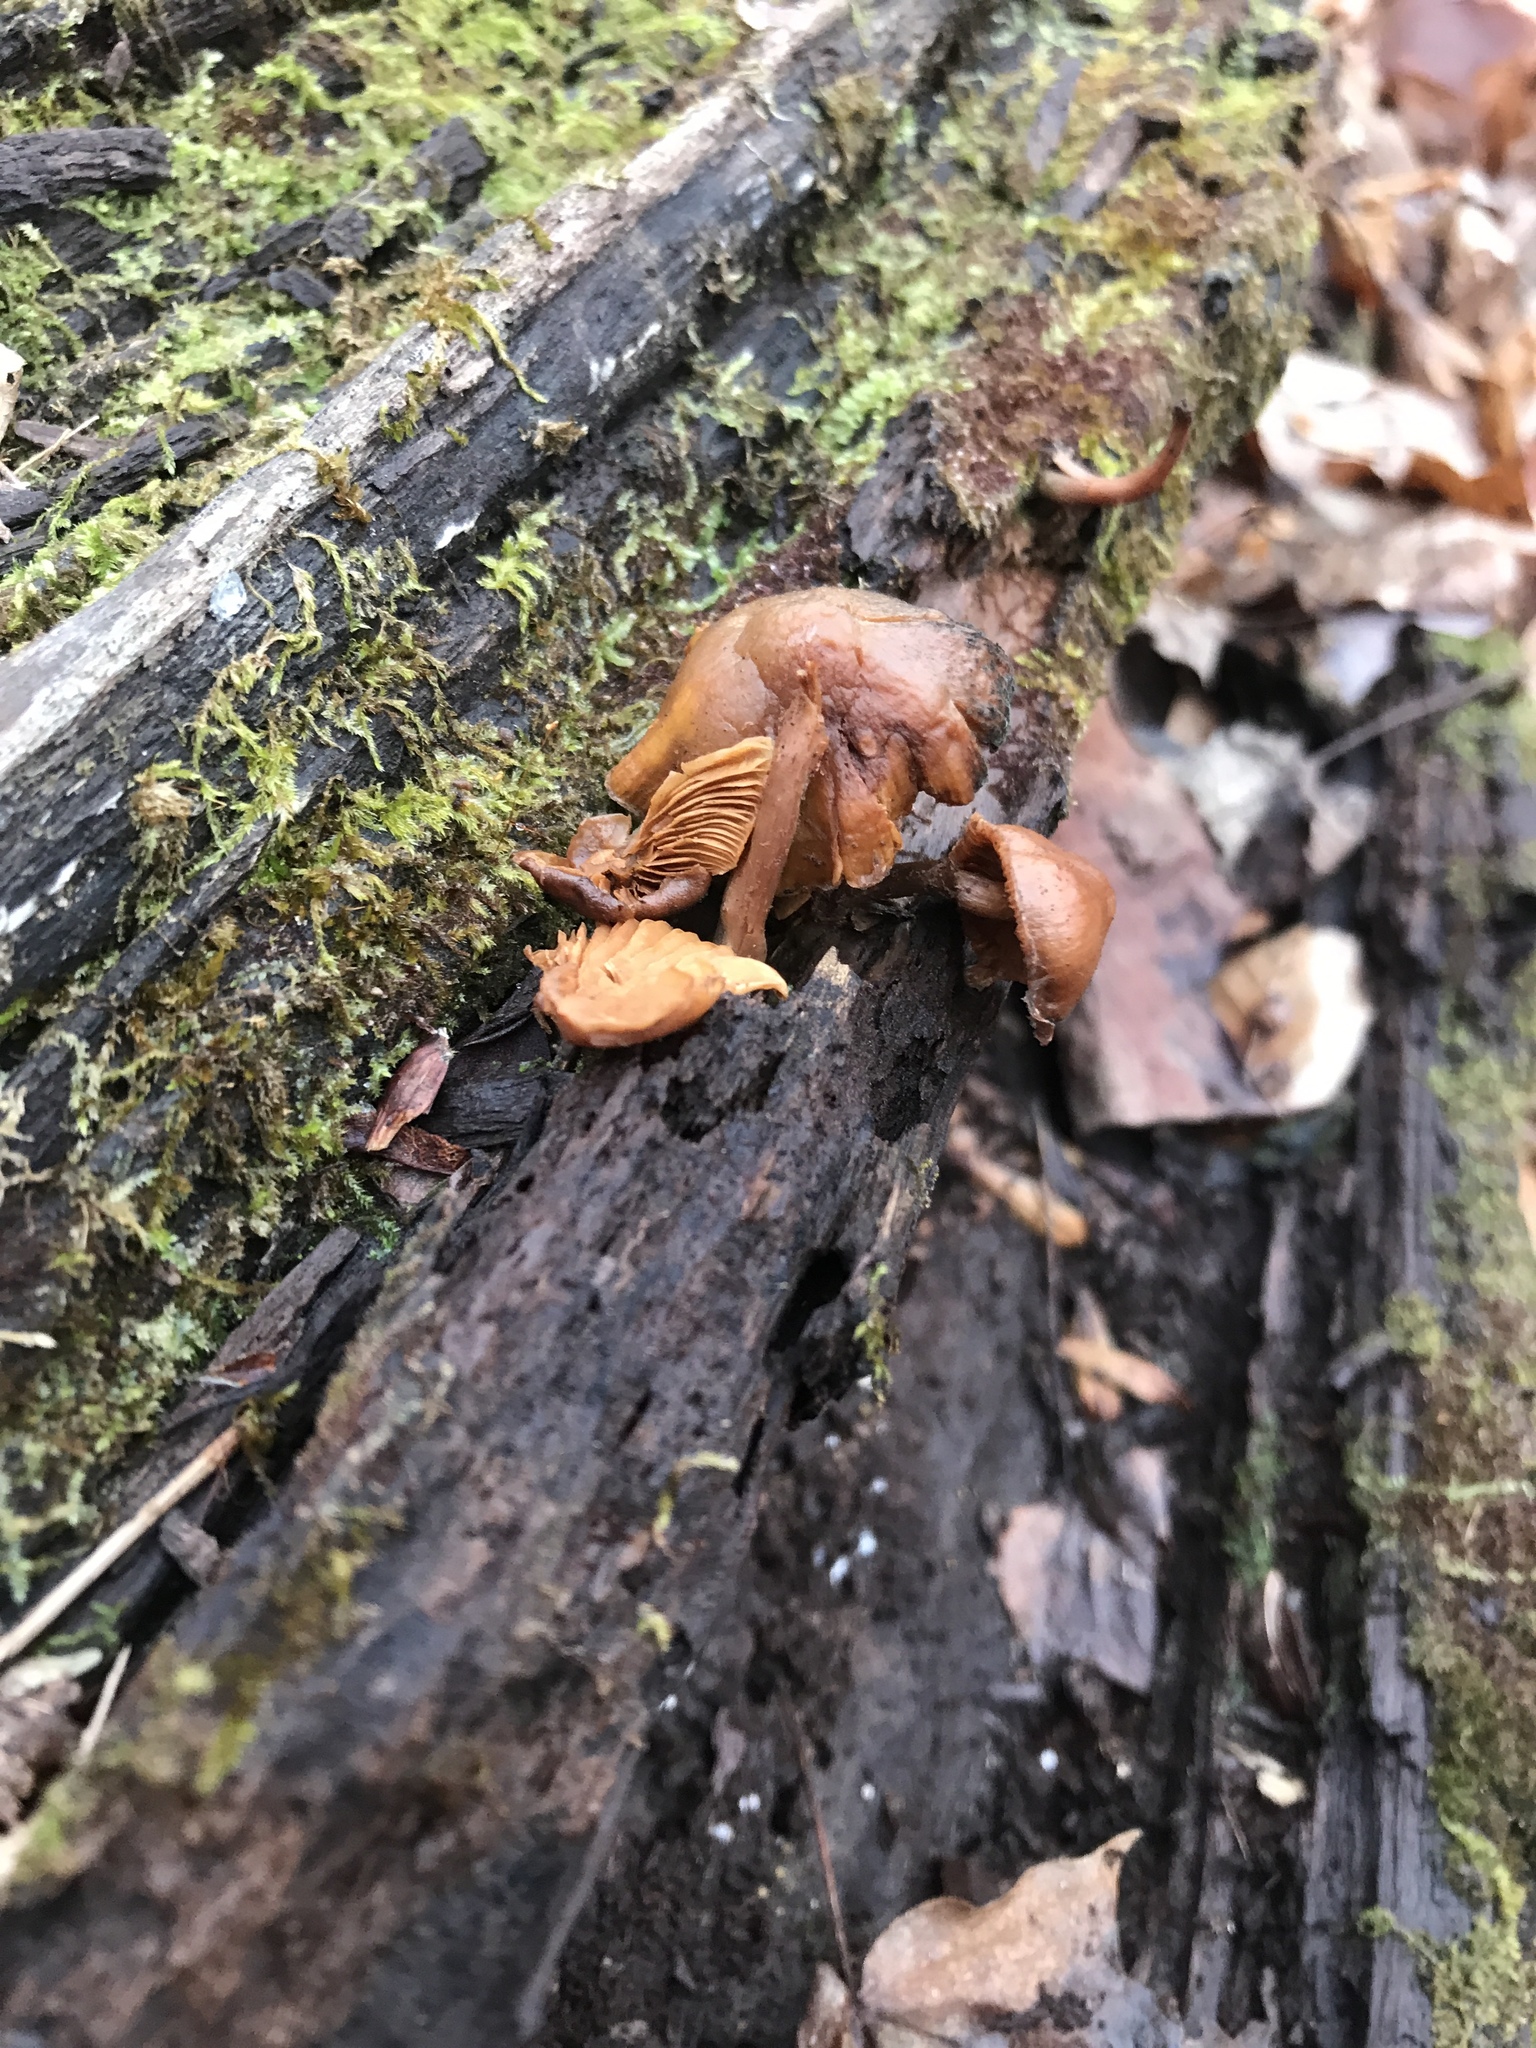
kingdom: Fungi
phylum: Basidiomycota
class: Agaricomycetes
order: Agaricales
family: Hymenogastraceae
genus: Galerina
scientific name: Galerina marginata
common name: Funeral bell
